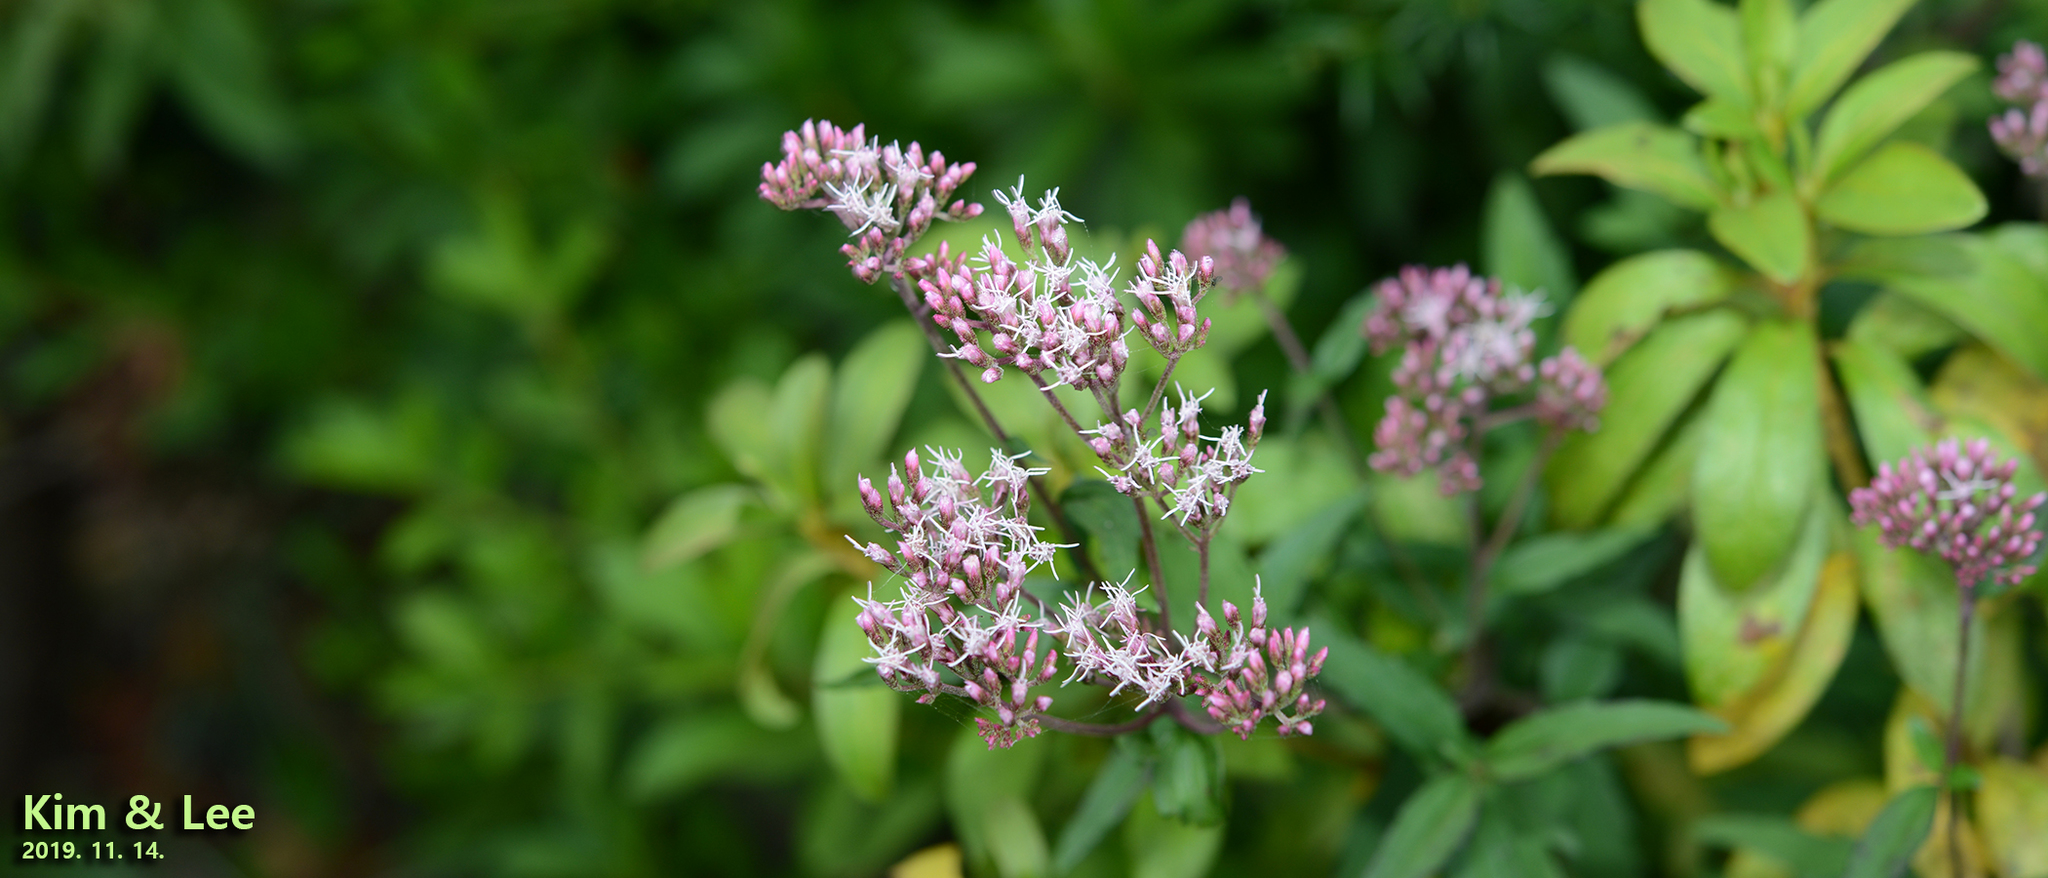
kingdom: Plantae
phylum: Tracheophyta
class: Magnoliopsida
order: Asterales
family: Asteraceae
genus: Eupatorium
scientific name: Eupatorium cannabinum
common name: Hemp-agrimony
